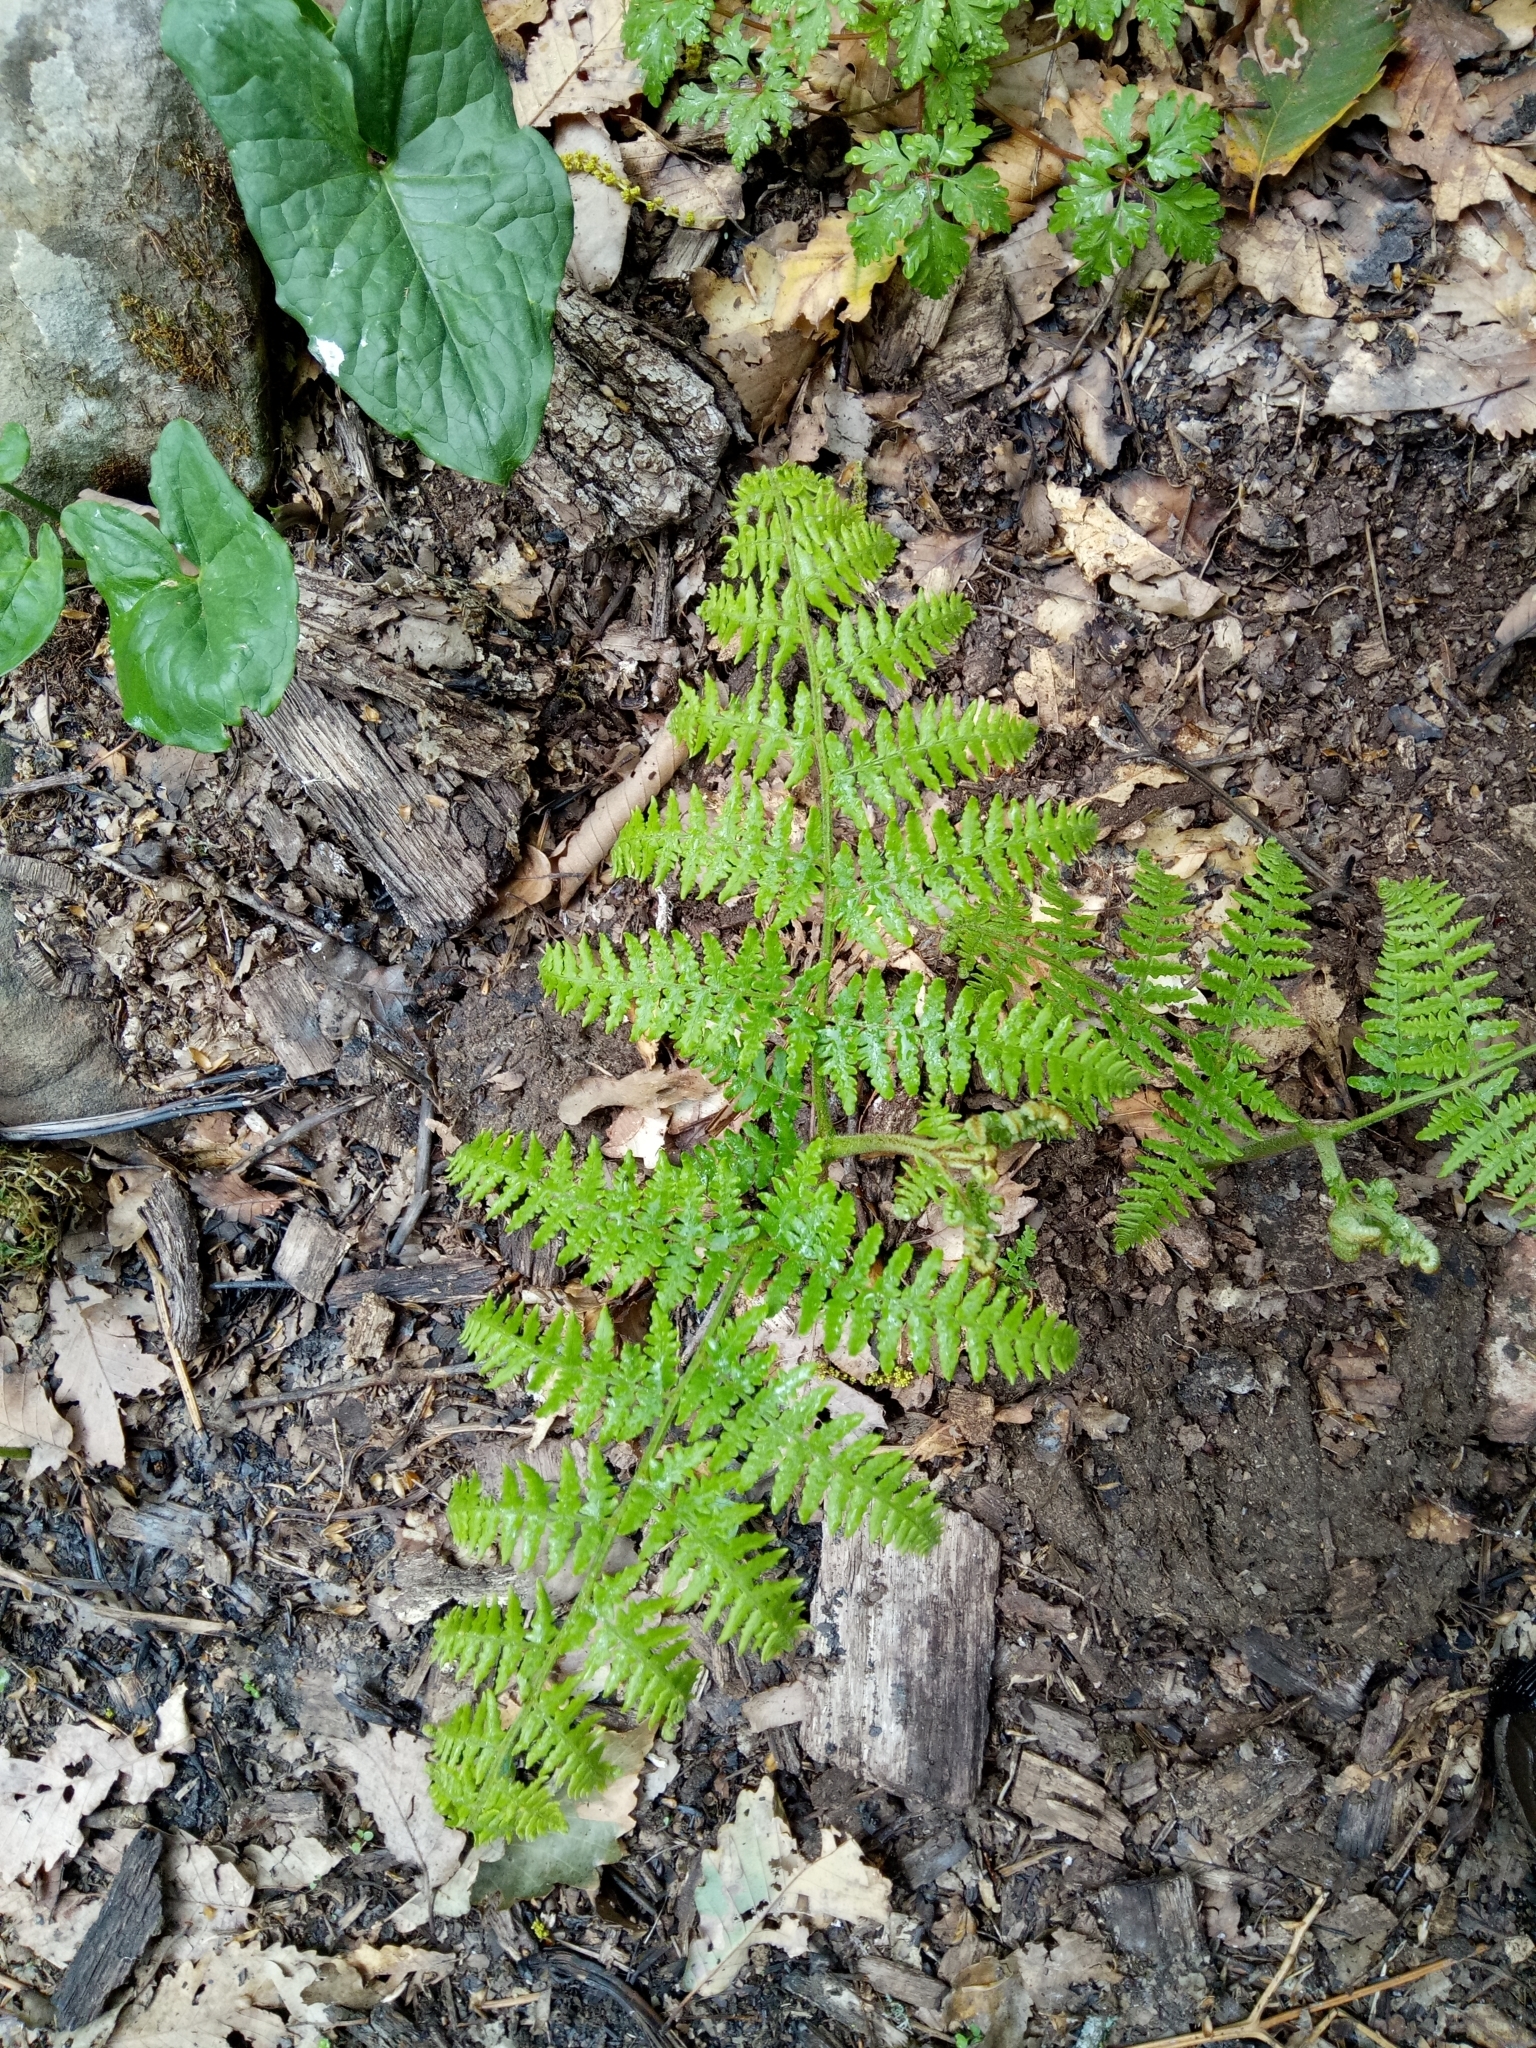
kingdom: Plantae
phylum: Tracheophyta
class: Polypodiopsida
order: Polypodiales
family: Dennstaedtiaceae
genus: Pteridium
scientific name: Pteridium aquilinum
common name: Bracken
